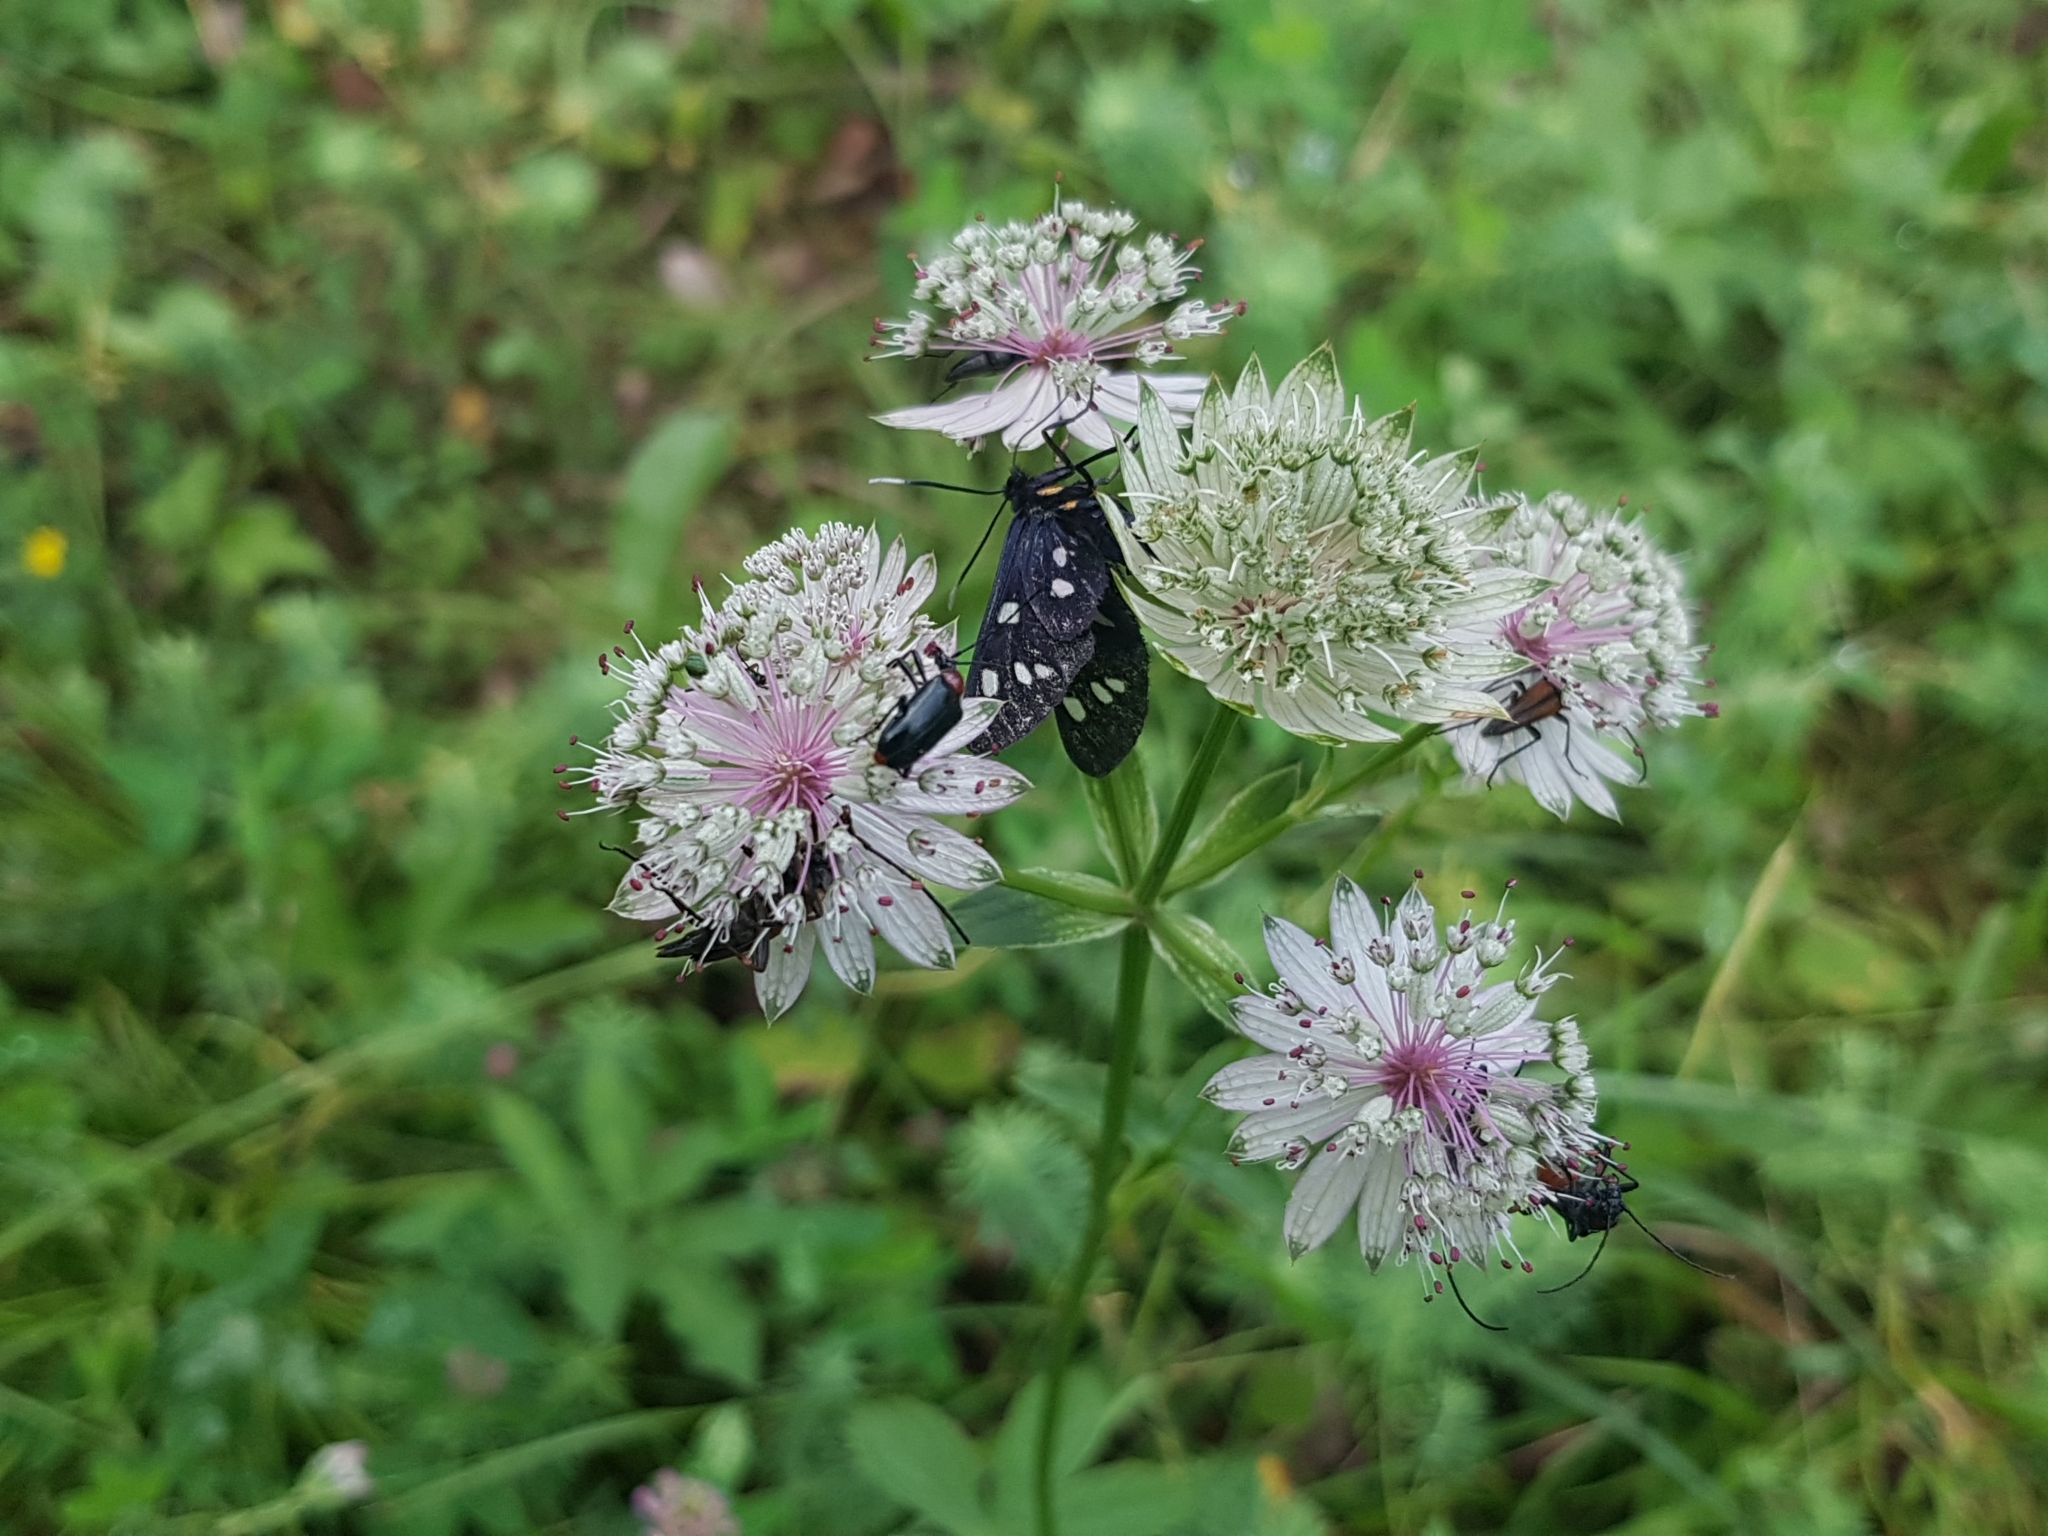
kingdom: Animalia
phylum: Arthropoda
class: Insecta
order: Lepidoptera
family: Erebidae
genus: Amata
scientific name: Amata phegea
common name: Nine-spotted
